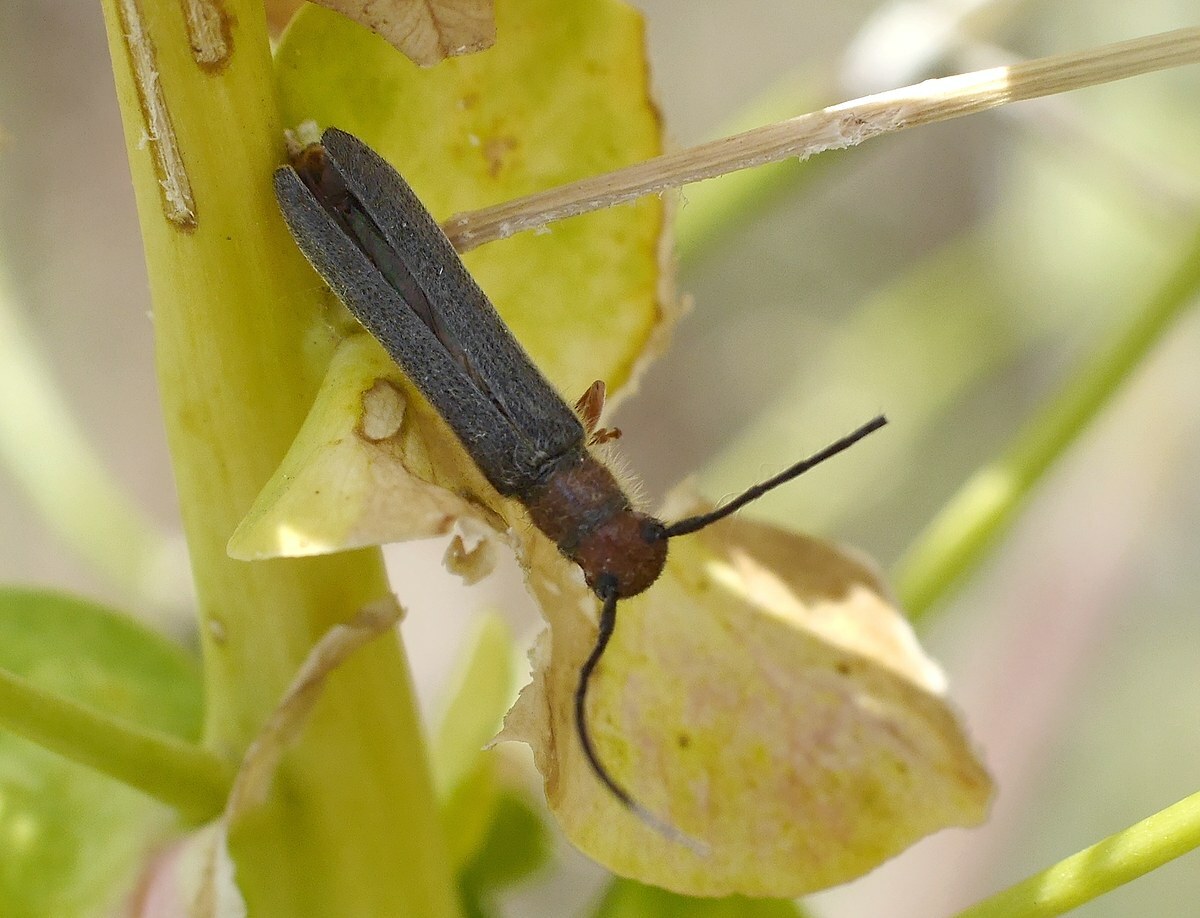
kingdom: Animalia
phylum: Arthropoda
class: Insecta
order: Coleoptera
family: Cerambycidae
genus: Oberea
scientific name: Oberea erythrocephala
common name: Leafy spurge stem boring beetle
